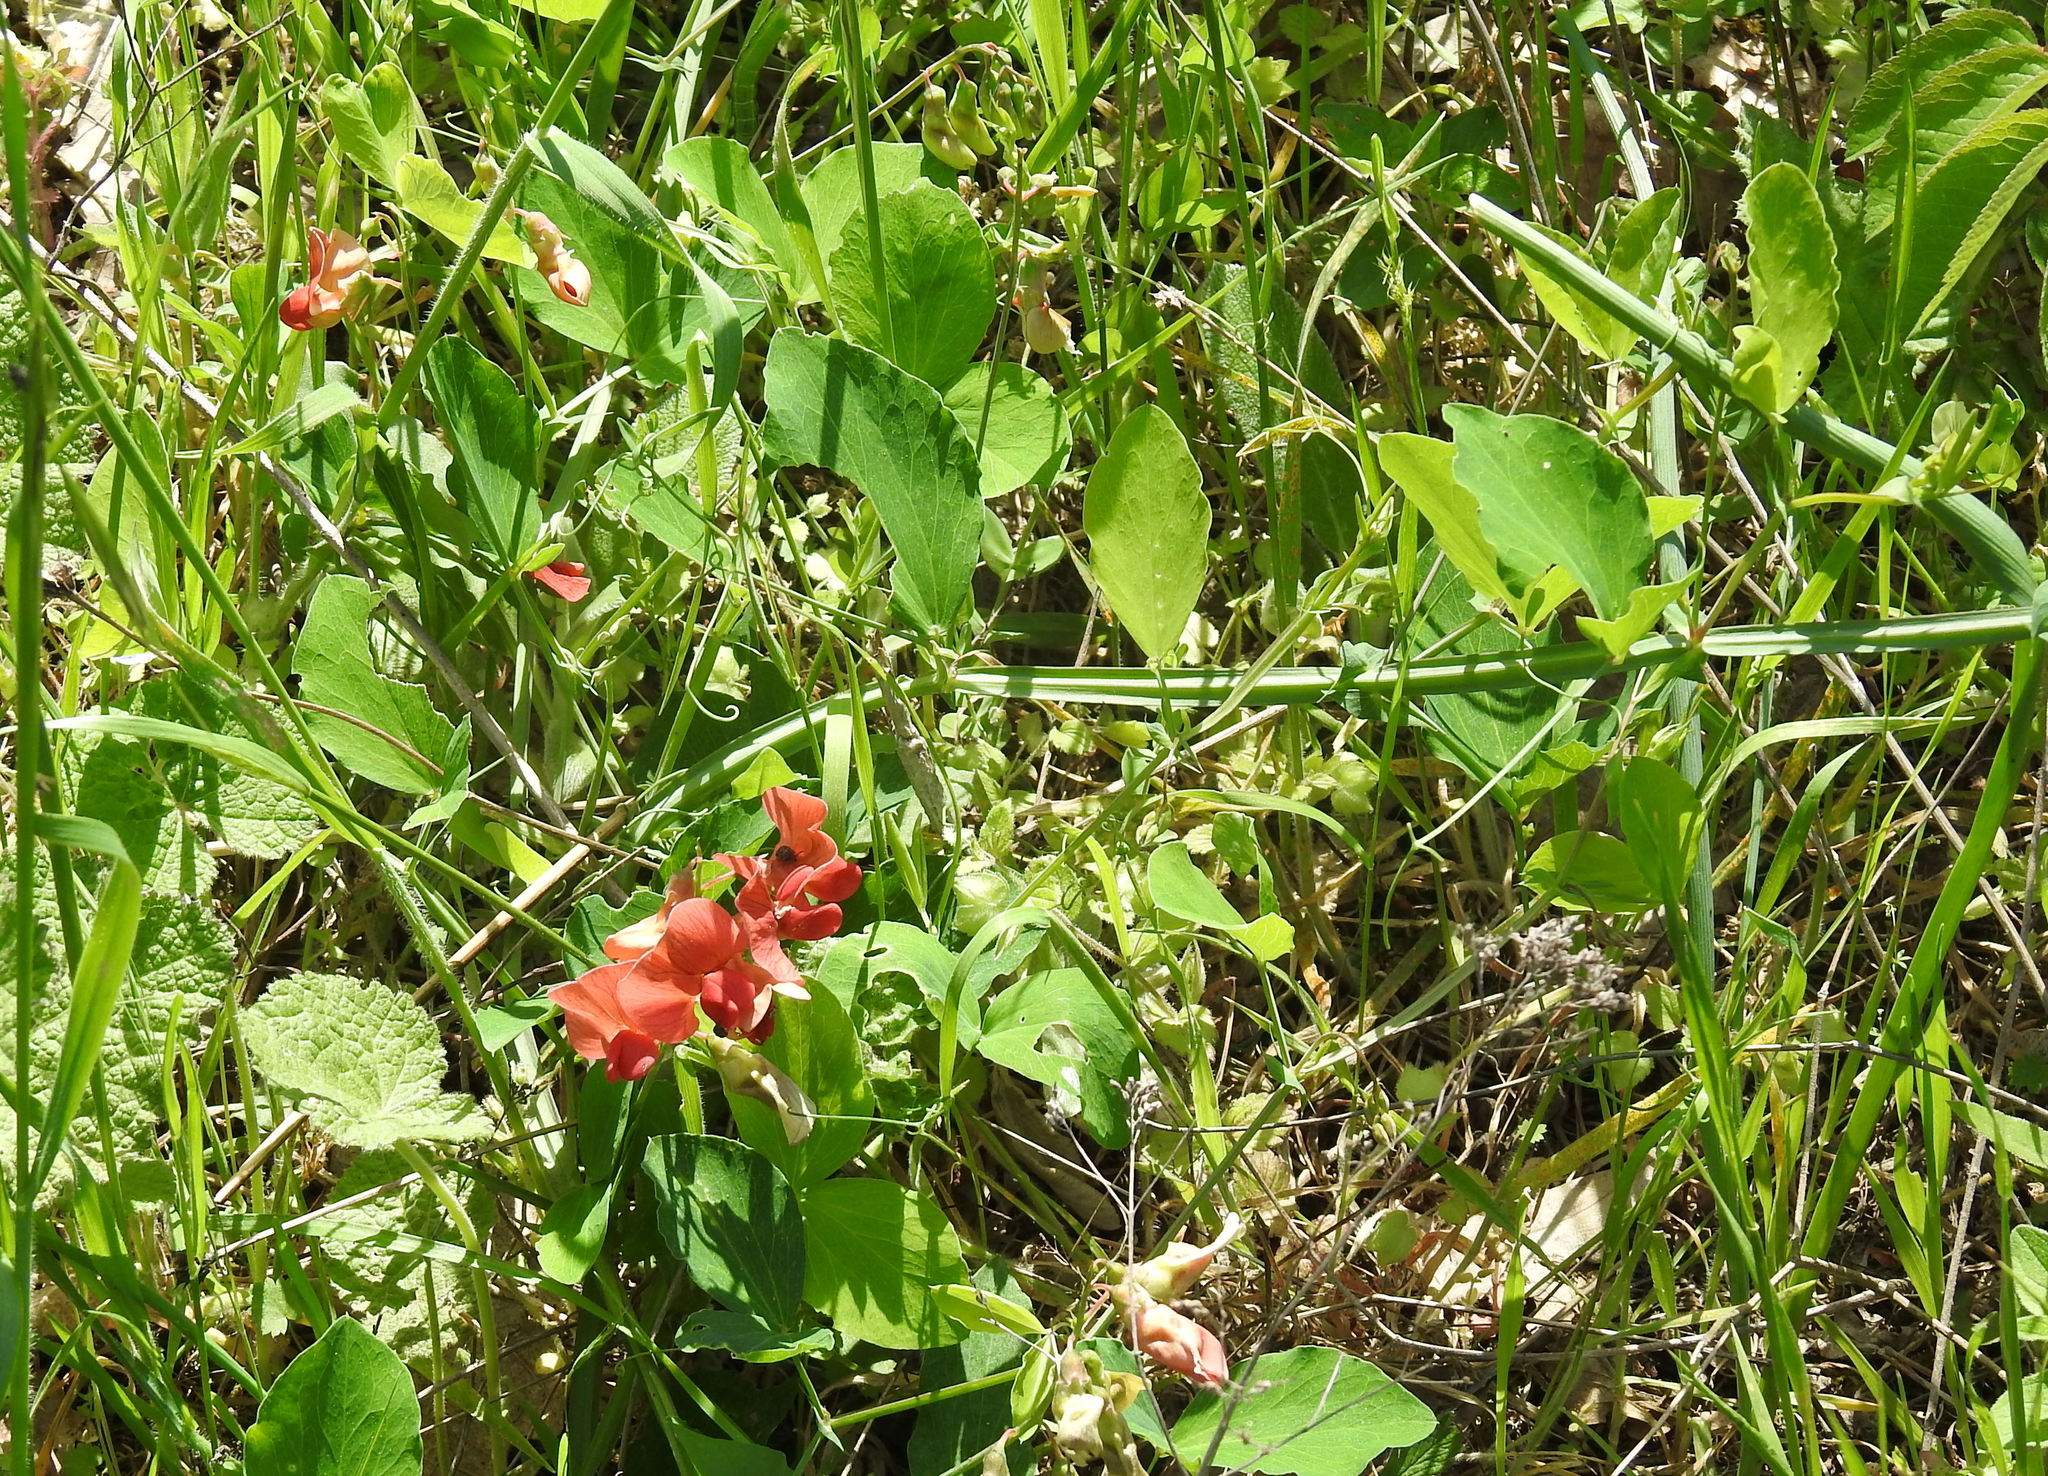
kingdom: Plantae
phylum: Tracheophyta
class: Magnoliopsida
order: Fabales
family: Fabaceae
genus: Lathyrus
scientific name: Lathyrus miniatus
